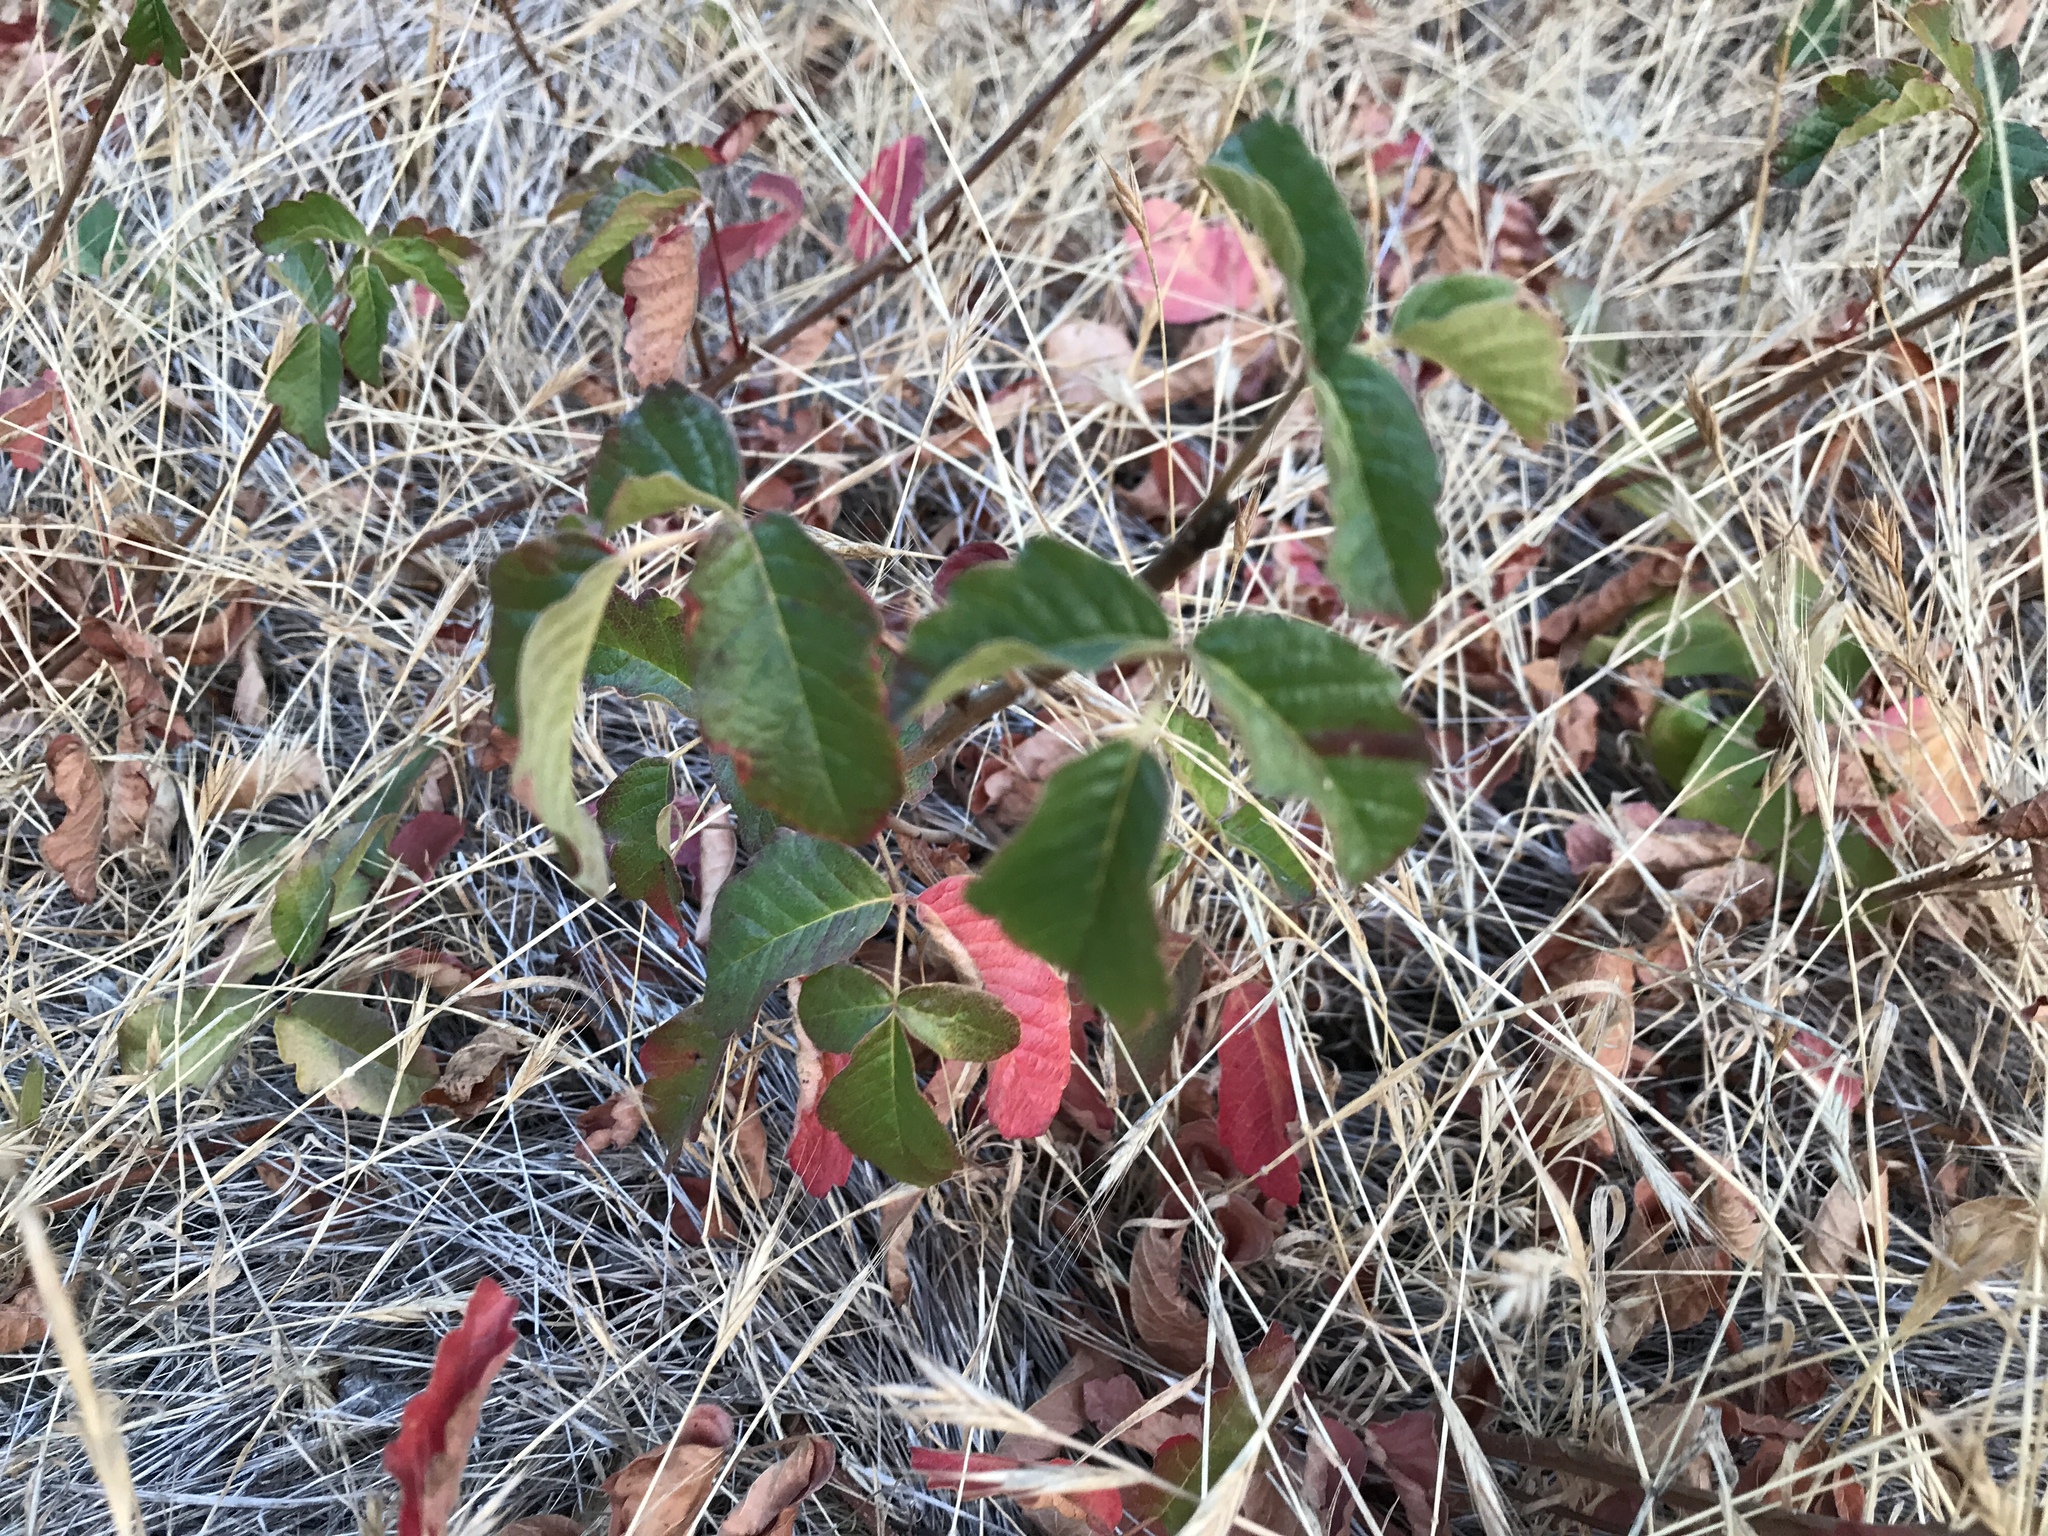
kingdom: Plantae
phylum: Tracheophyta
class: Magnoliopsida
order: Sapindales
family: Anacardiaceae
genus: Toxicodendron
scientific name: Toxicodendron diversilobum
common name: Pacific poison-oak
